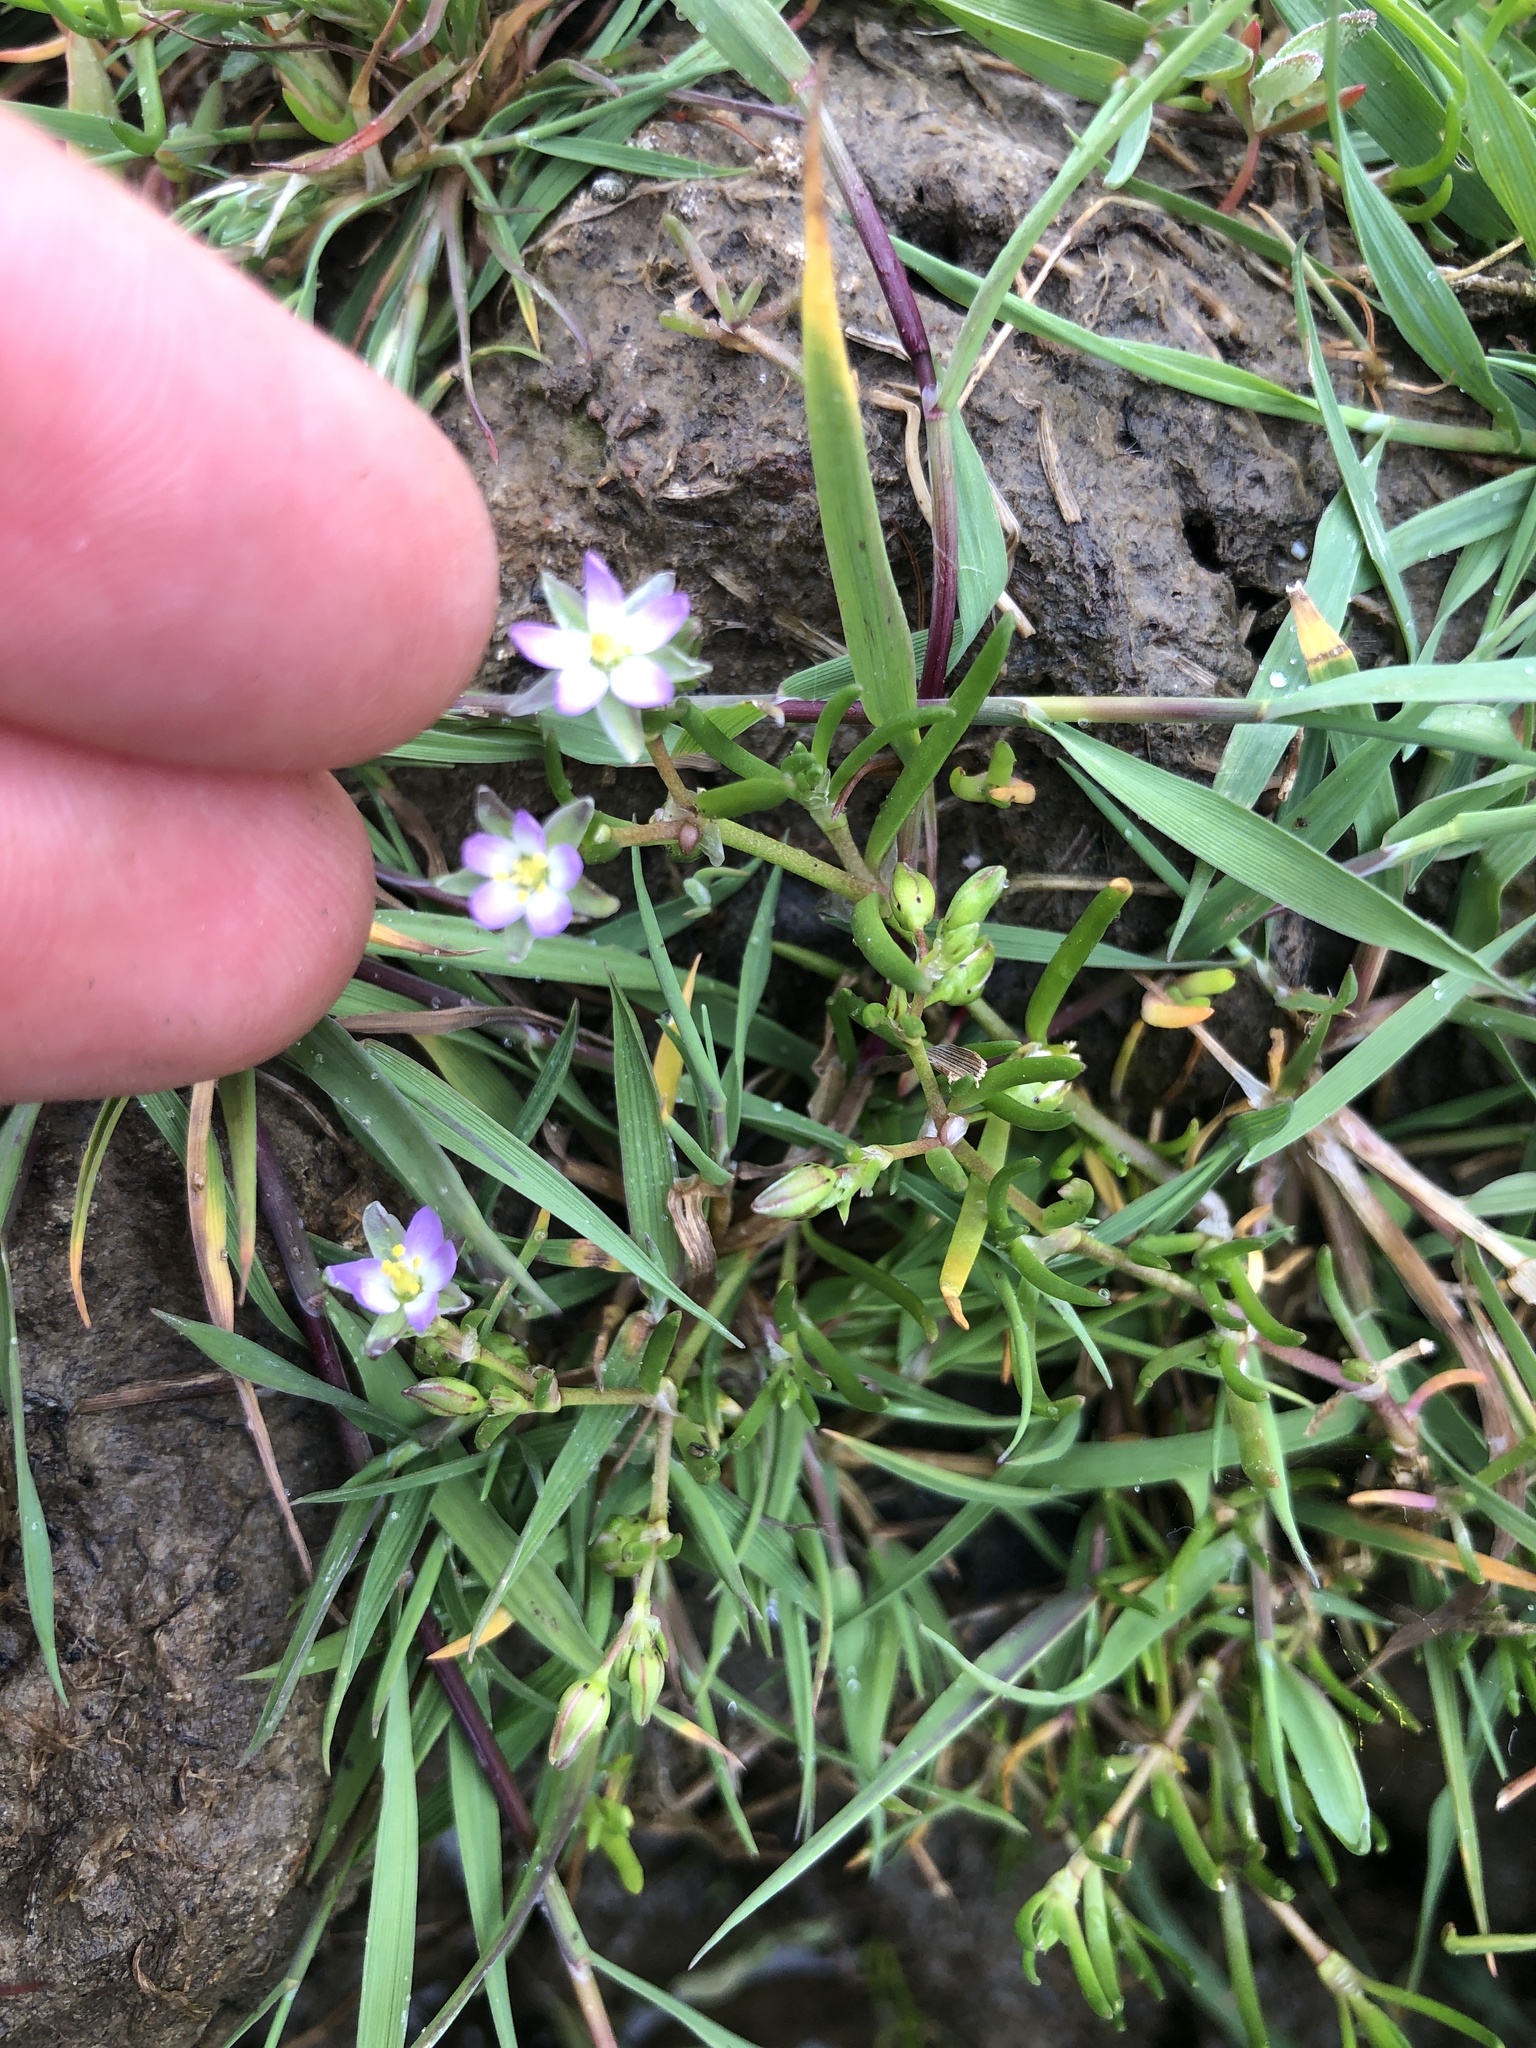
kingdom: Plantae
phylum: Tracheophyta
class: Magnoliopsida
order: Caryophyllales
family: Caryophyllaceae
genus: Spergularia
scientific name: Spergularia marina
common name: Lesser sea-spurrey
